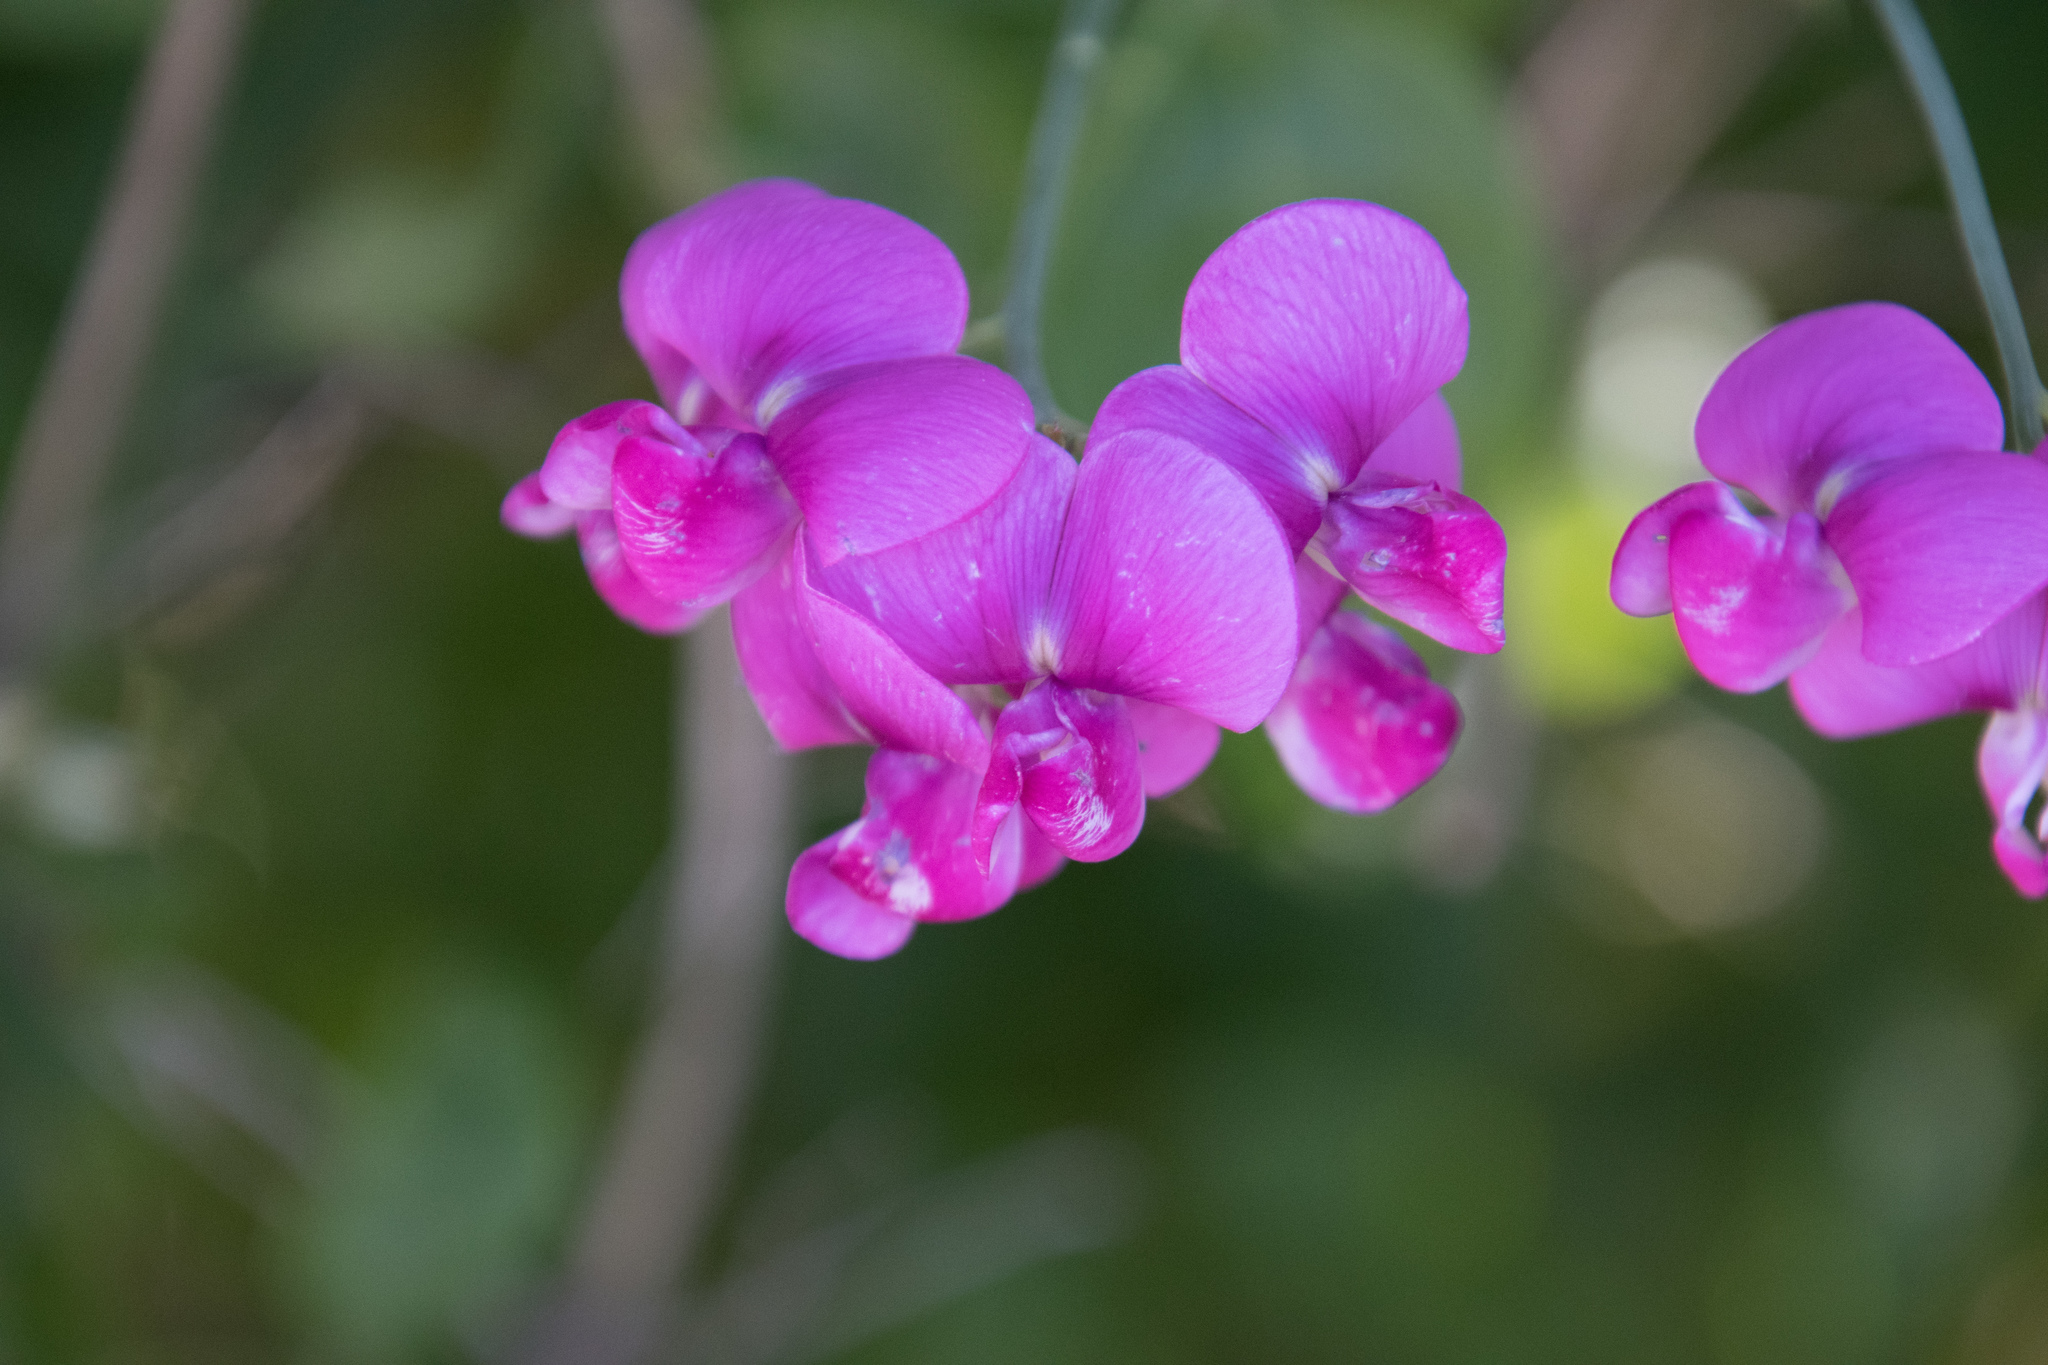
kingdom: Plantae
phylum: Tracheophyta
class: Magnoliopsida
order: Fabales
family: Fabaceae
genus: Lathyrus
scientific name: Lathyrus latifolius
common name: Perennial pea
